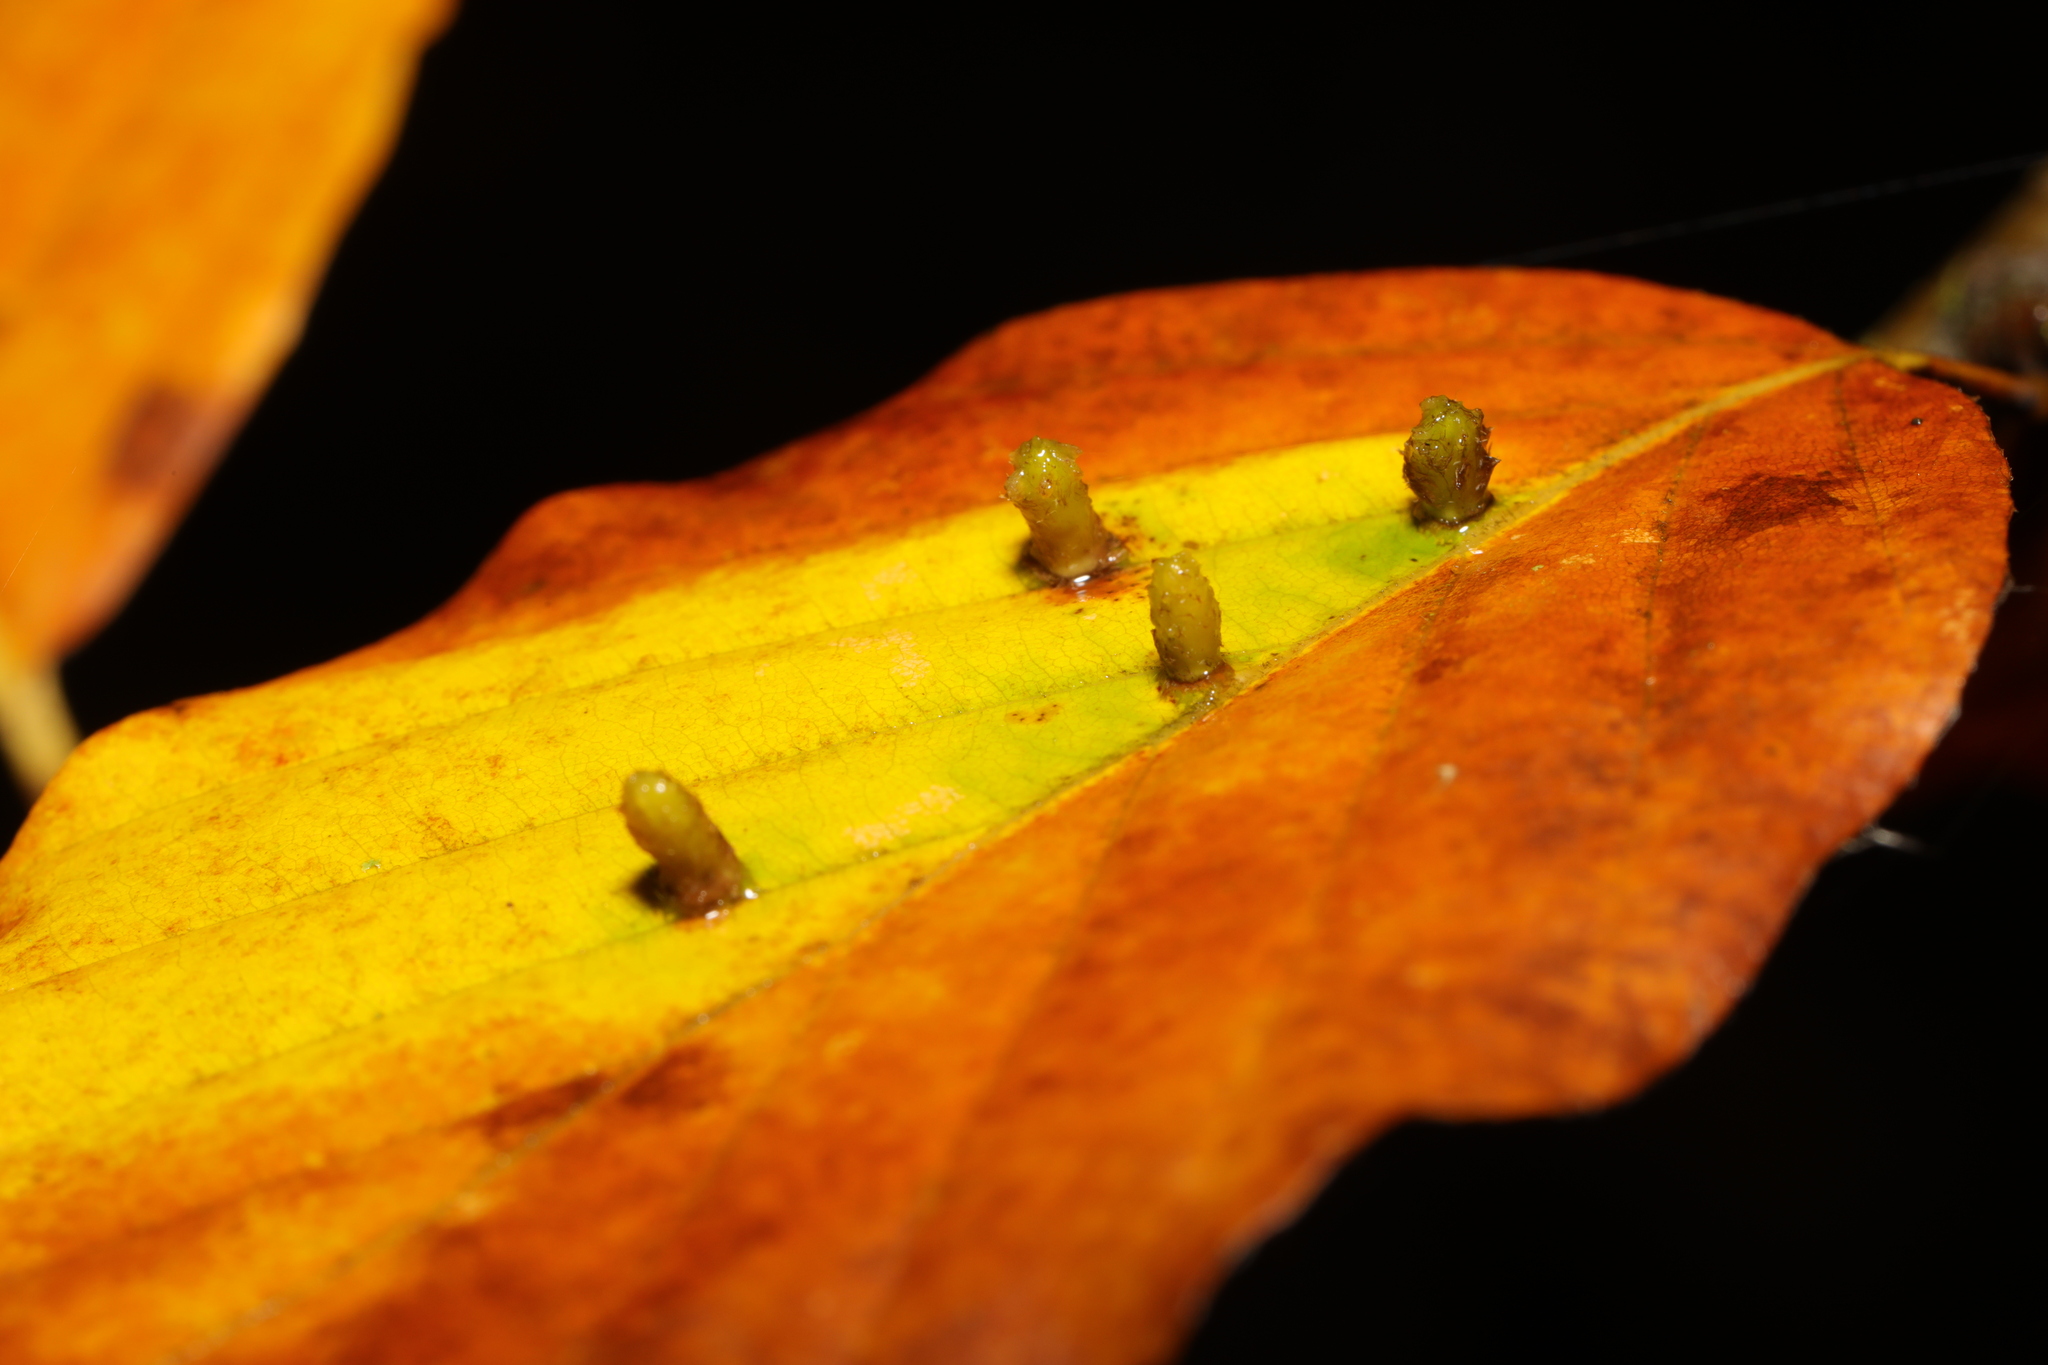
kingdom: Animalia
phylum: Arthropoda
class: Insecta
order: Diptera
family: Cecidomyiidae
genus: Hartigiola
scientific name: Hartigiola annulipes
